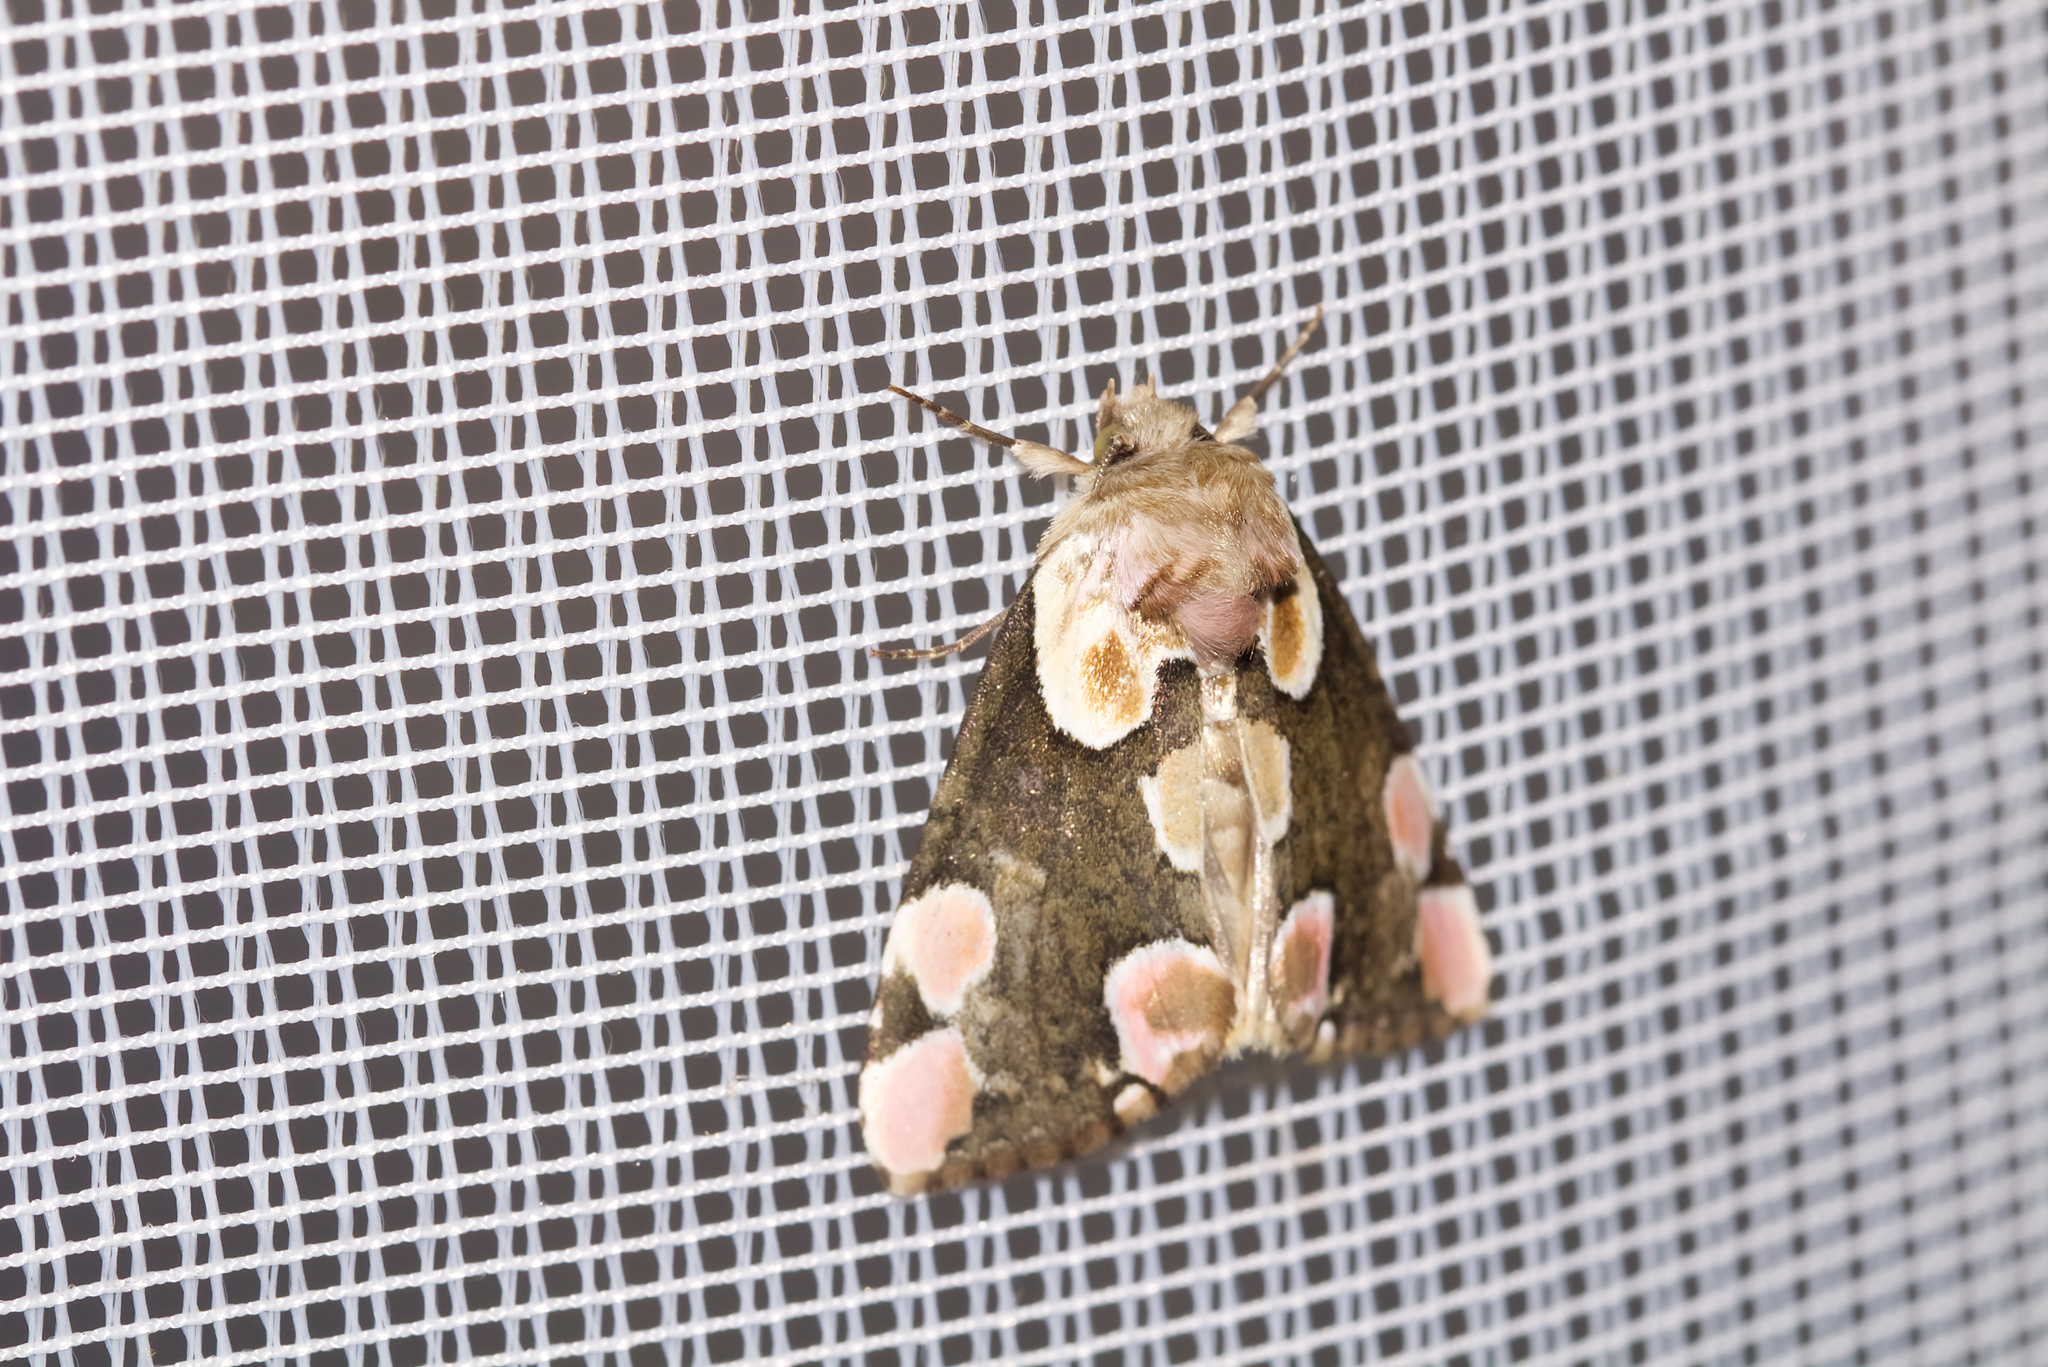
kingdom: Animalia
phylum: Arthropoda
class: Insecta
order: Lepidoptera
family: Drepanidae
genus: Thyatira
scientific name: Thyatira batis
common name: Peach blossom
